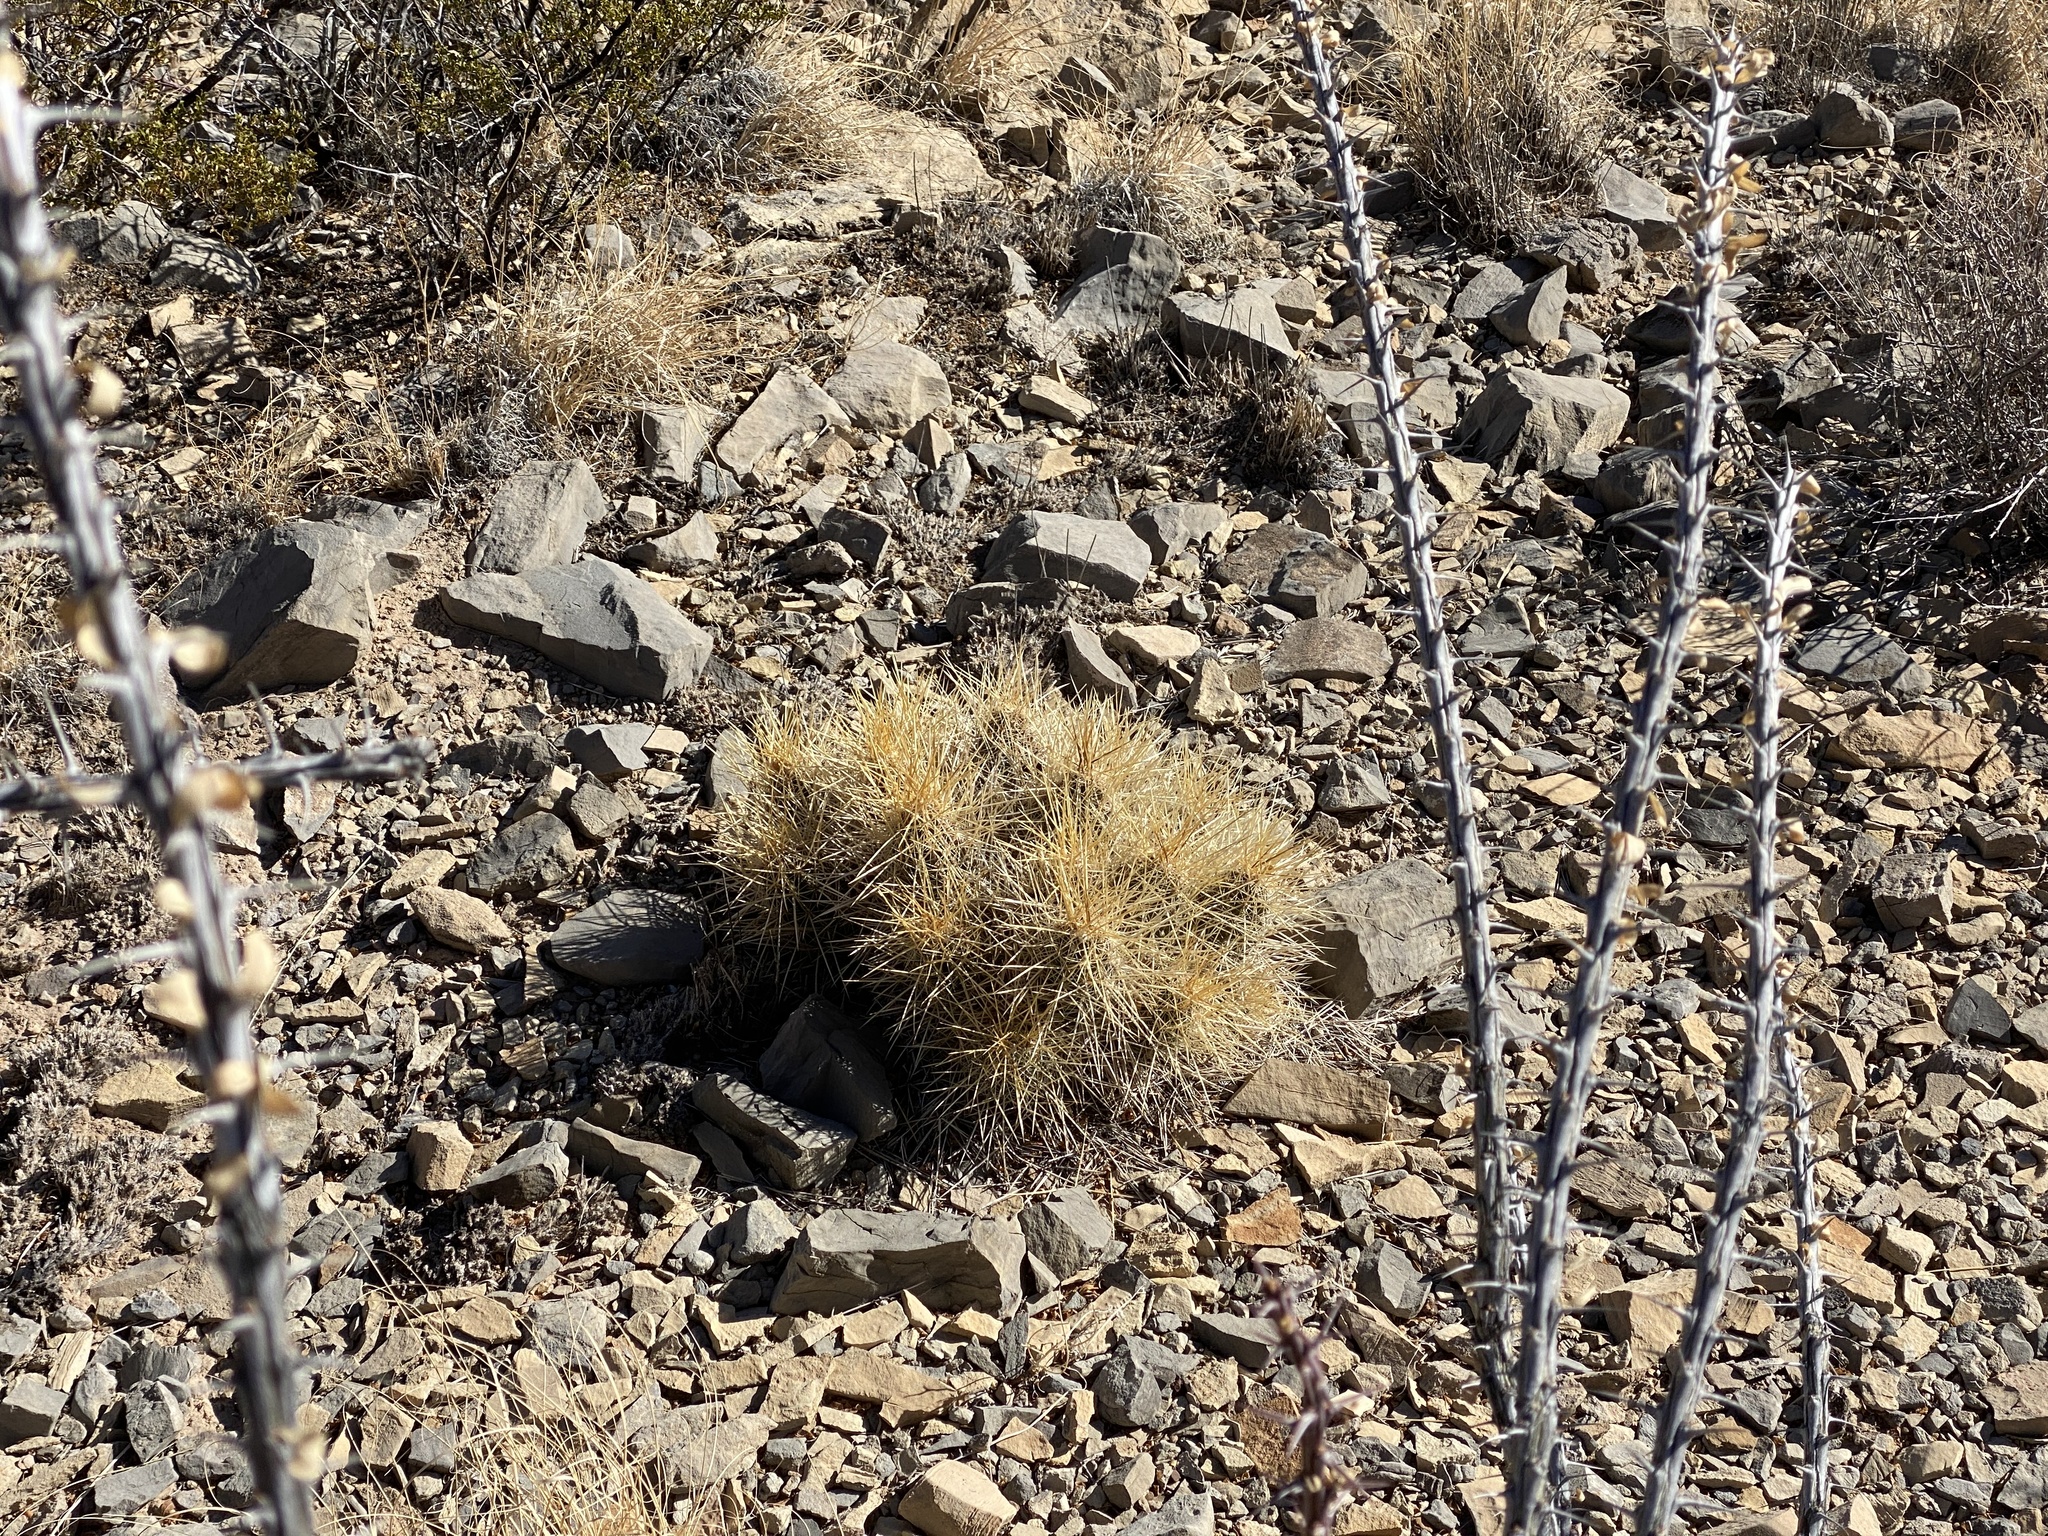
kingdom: Plantae
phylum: Tracheophyta
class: Magnoliopsida
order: Caryophyllales
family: Cactaceae
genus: Echinocereus
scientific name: Echinocereus stramineus
